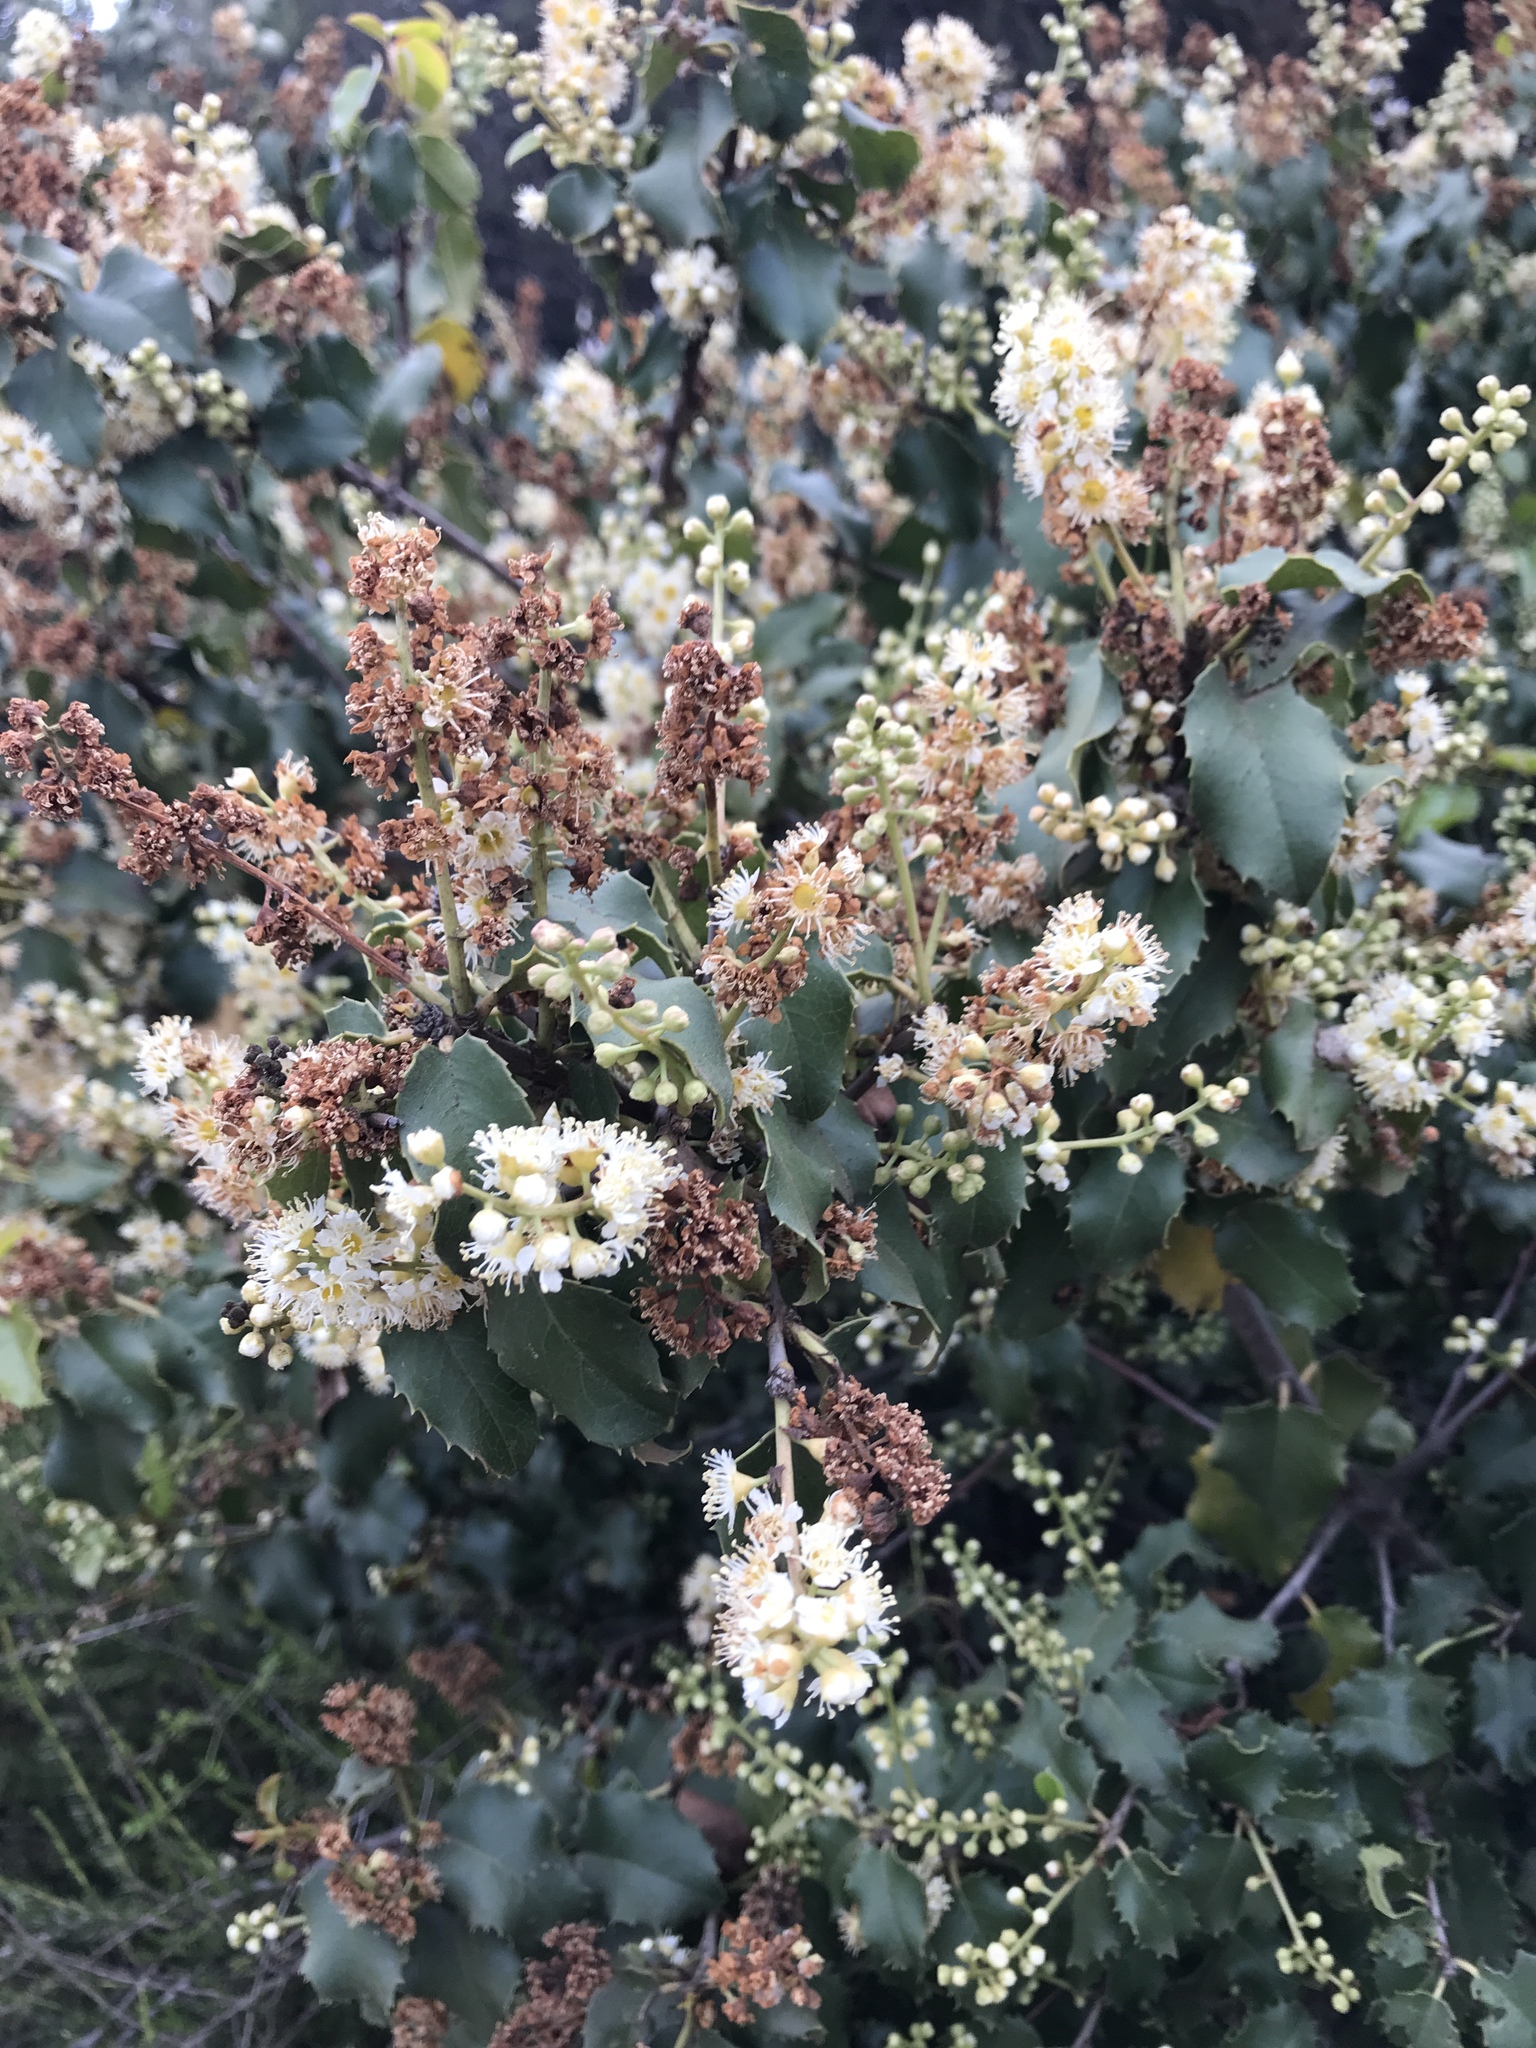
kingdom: Plantae
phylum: Tracheophyta
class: Magnoliopsida
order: Rosales
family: Rosaceae
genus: Prunus
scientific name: Prunus ilicifolia
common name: Hollyleaf cherry
